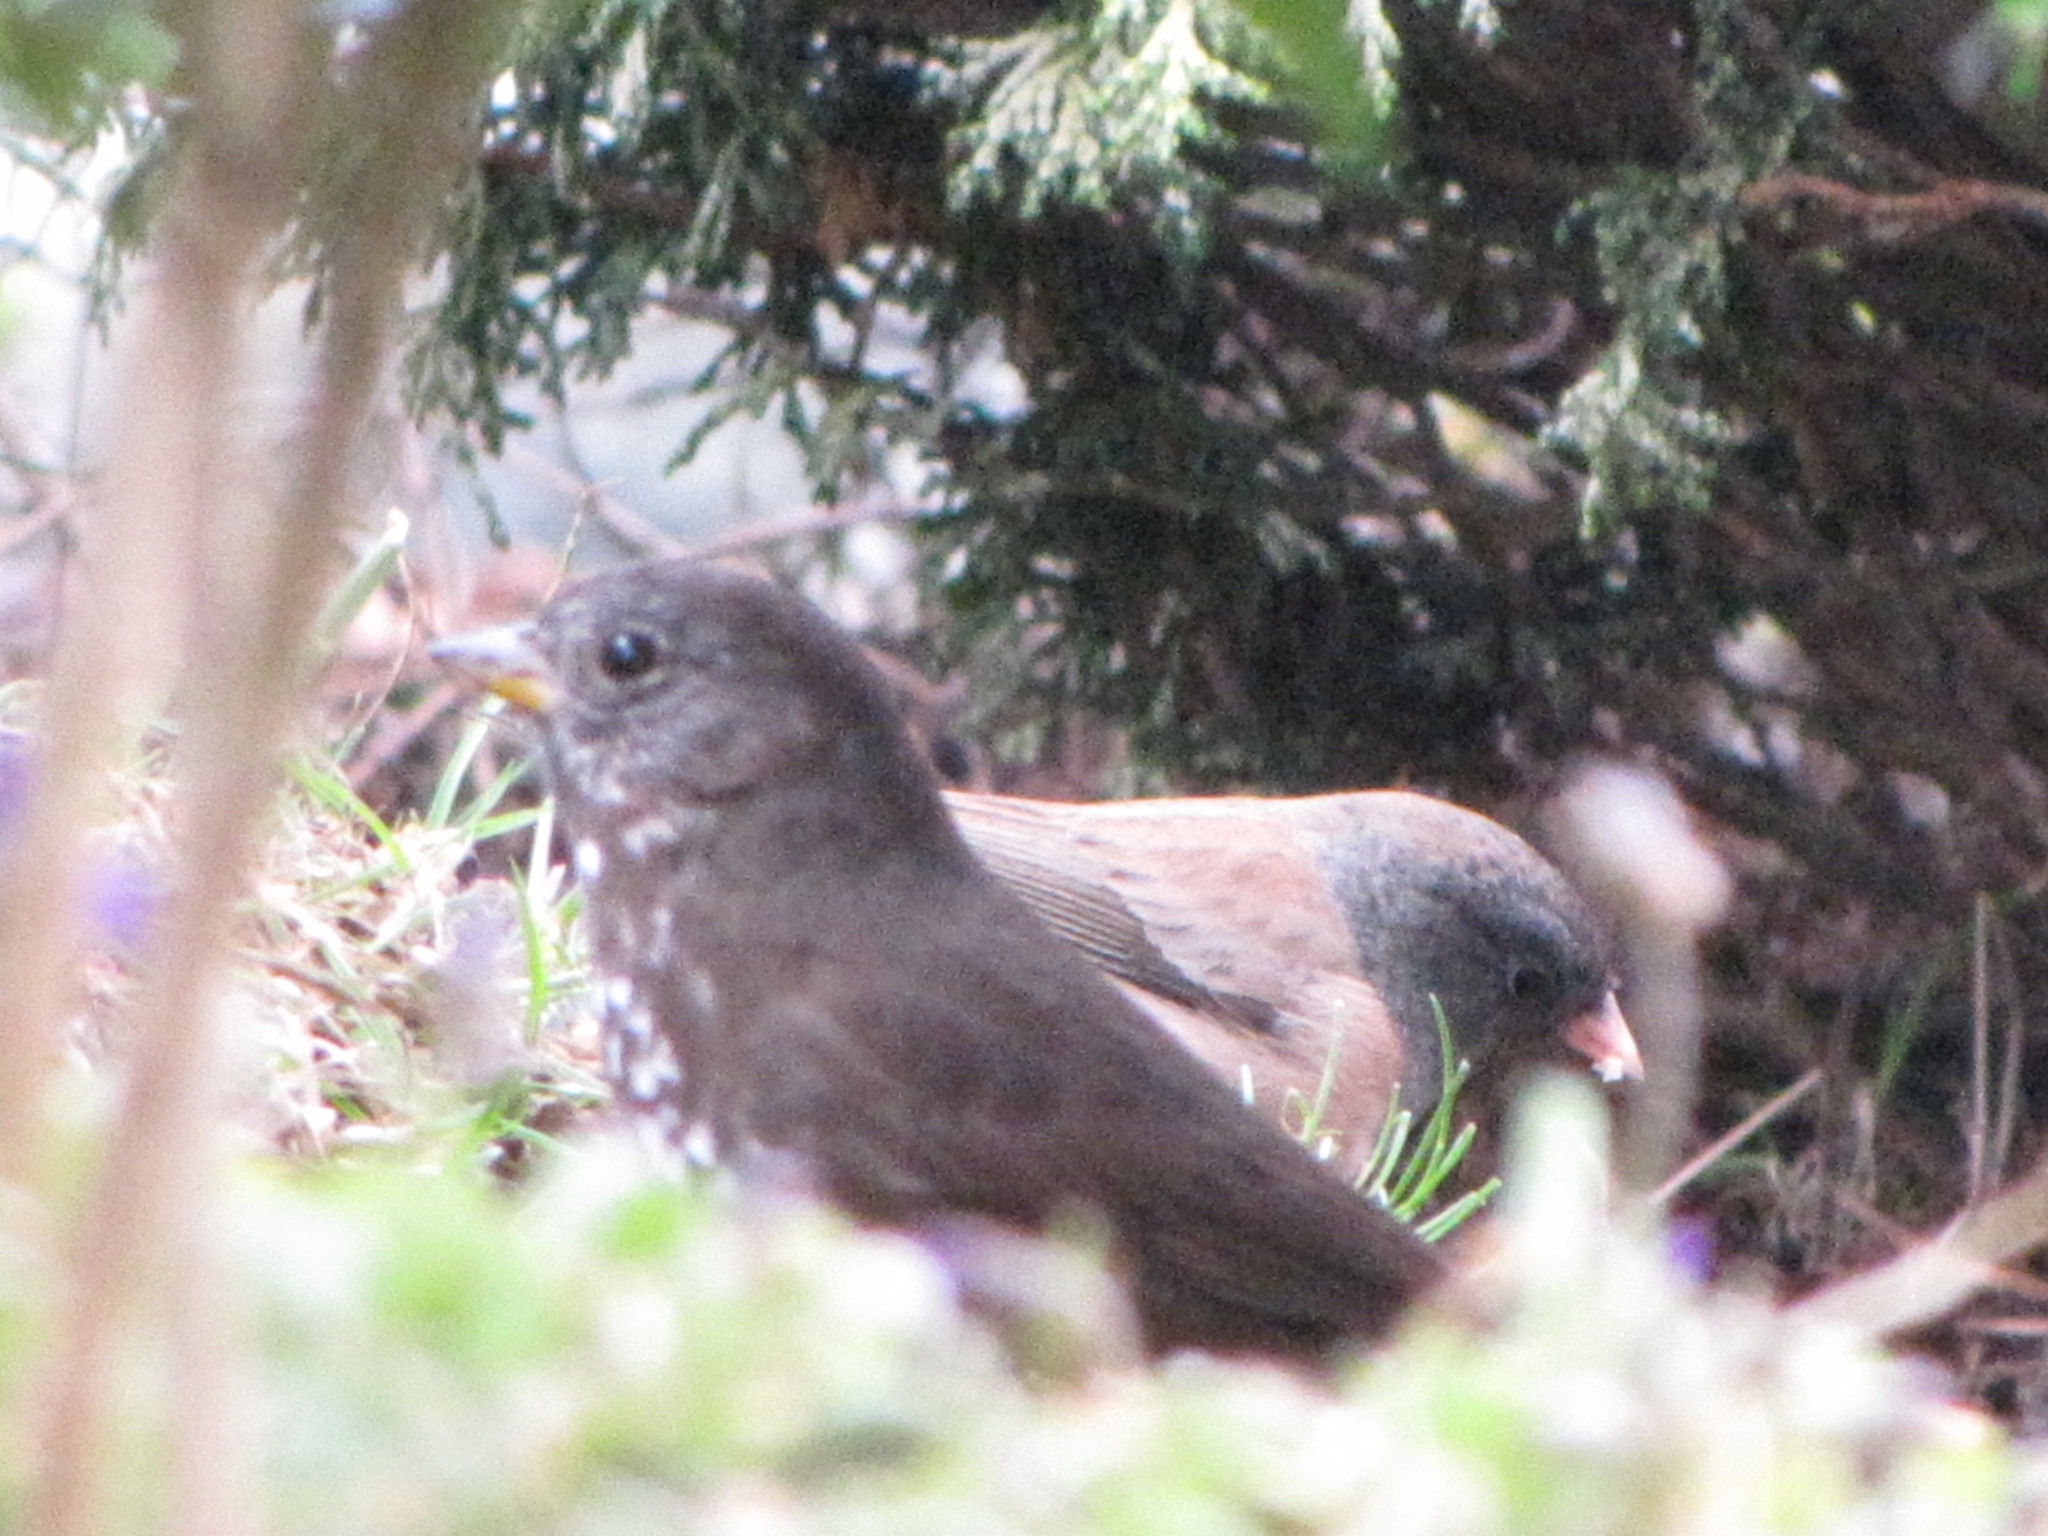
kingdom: Animalia
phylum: Chordata
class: Aves
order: Passeriformes
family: Passerellidae
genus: Passerella
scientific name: Passerella iliaca
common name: Fox sparrow
